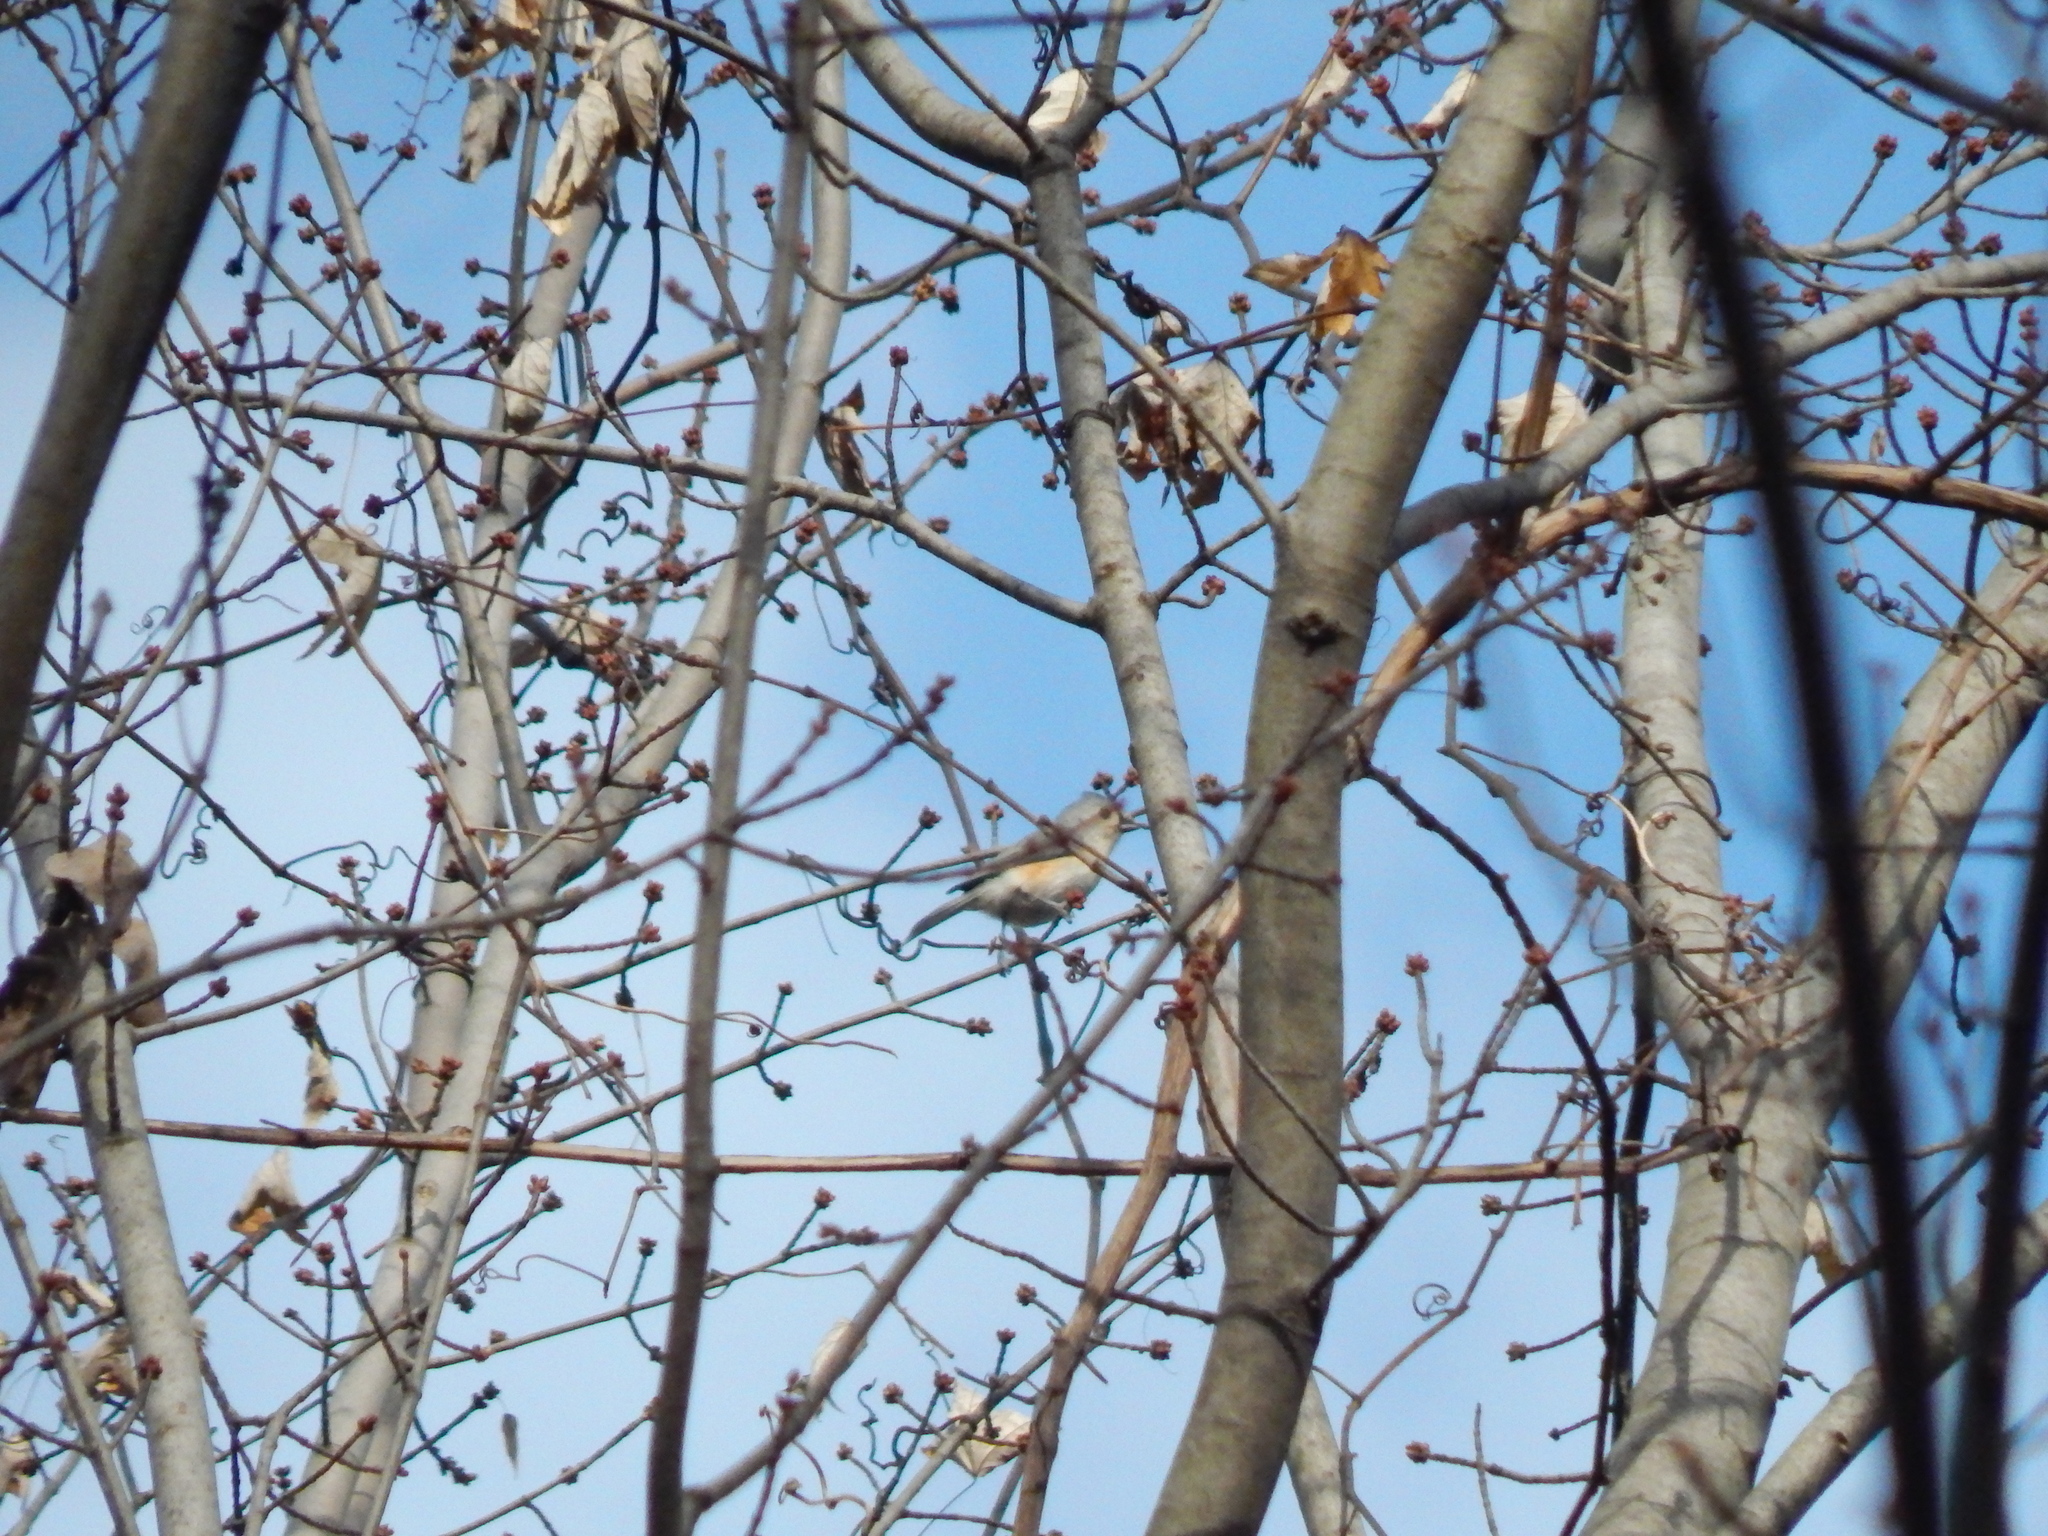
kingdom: Animalia
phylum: Chordata
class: Aves
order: Passeriformes
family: Paridae
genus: Baeolophus
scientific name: Baeolophus bicolor
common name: Tufted titmouse
